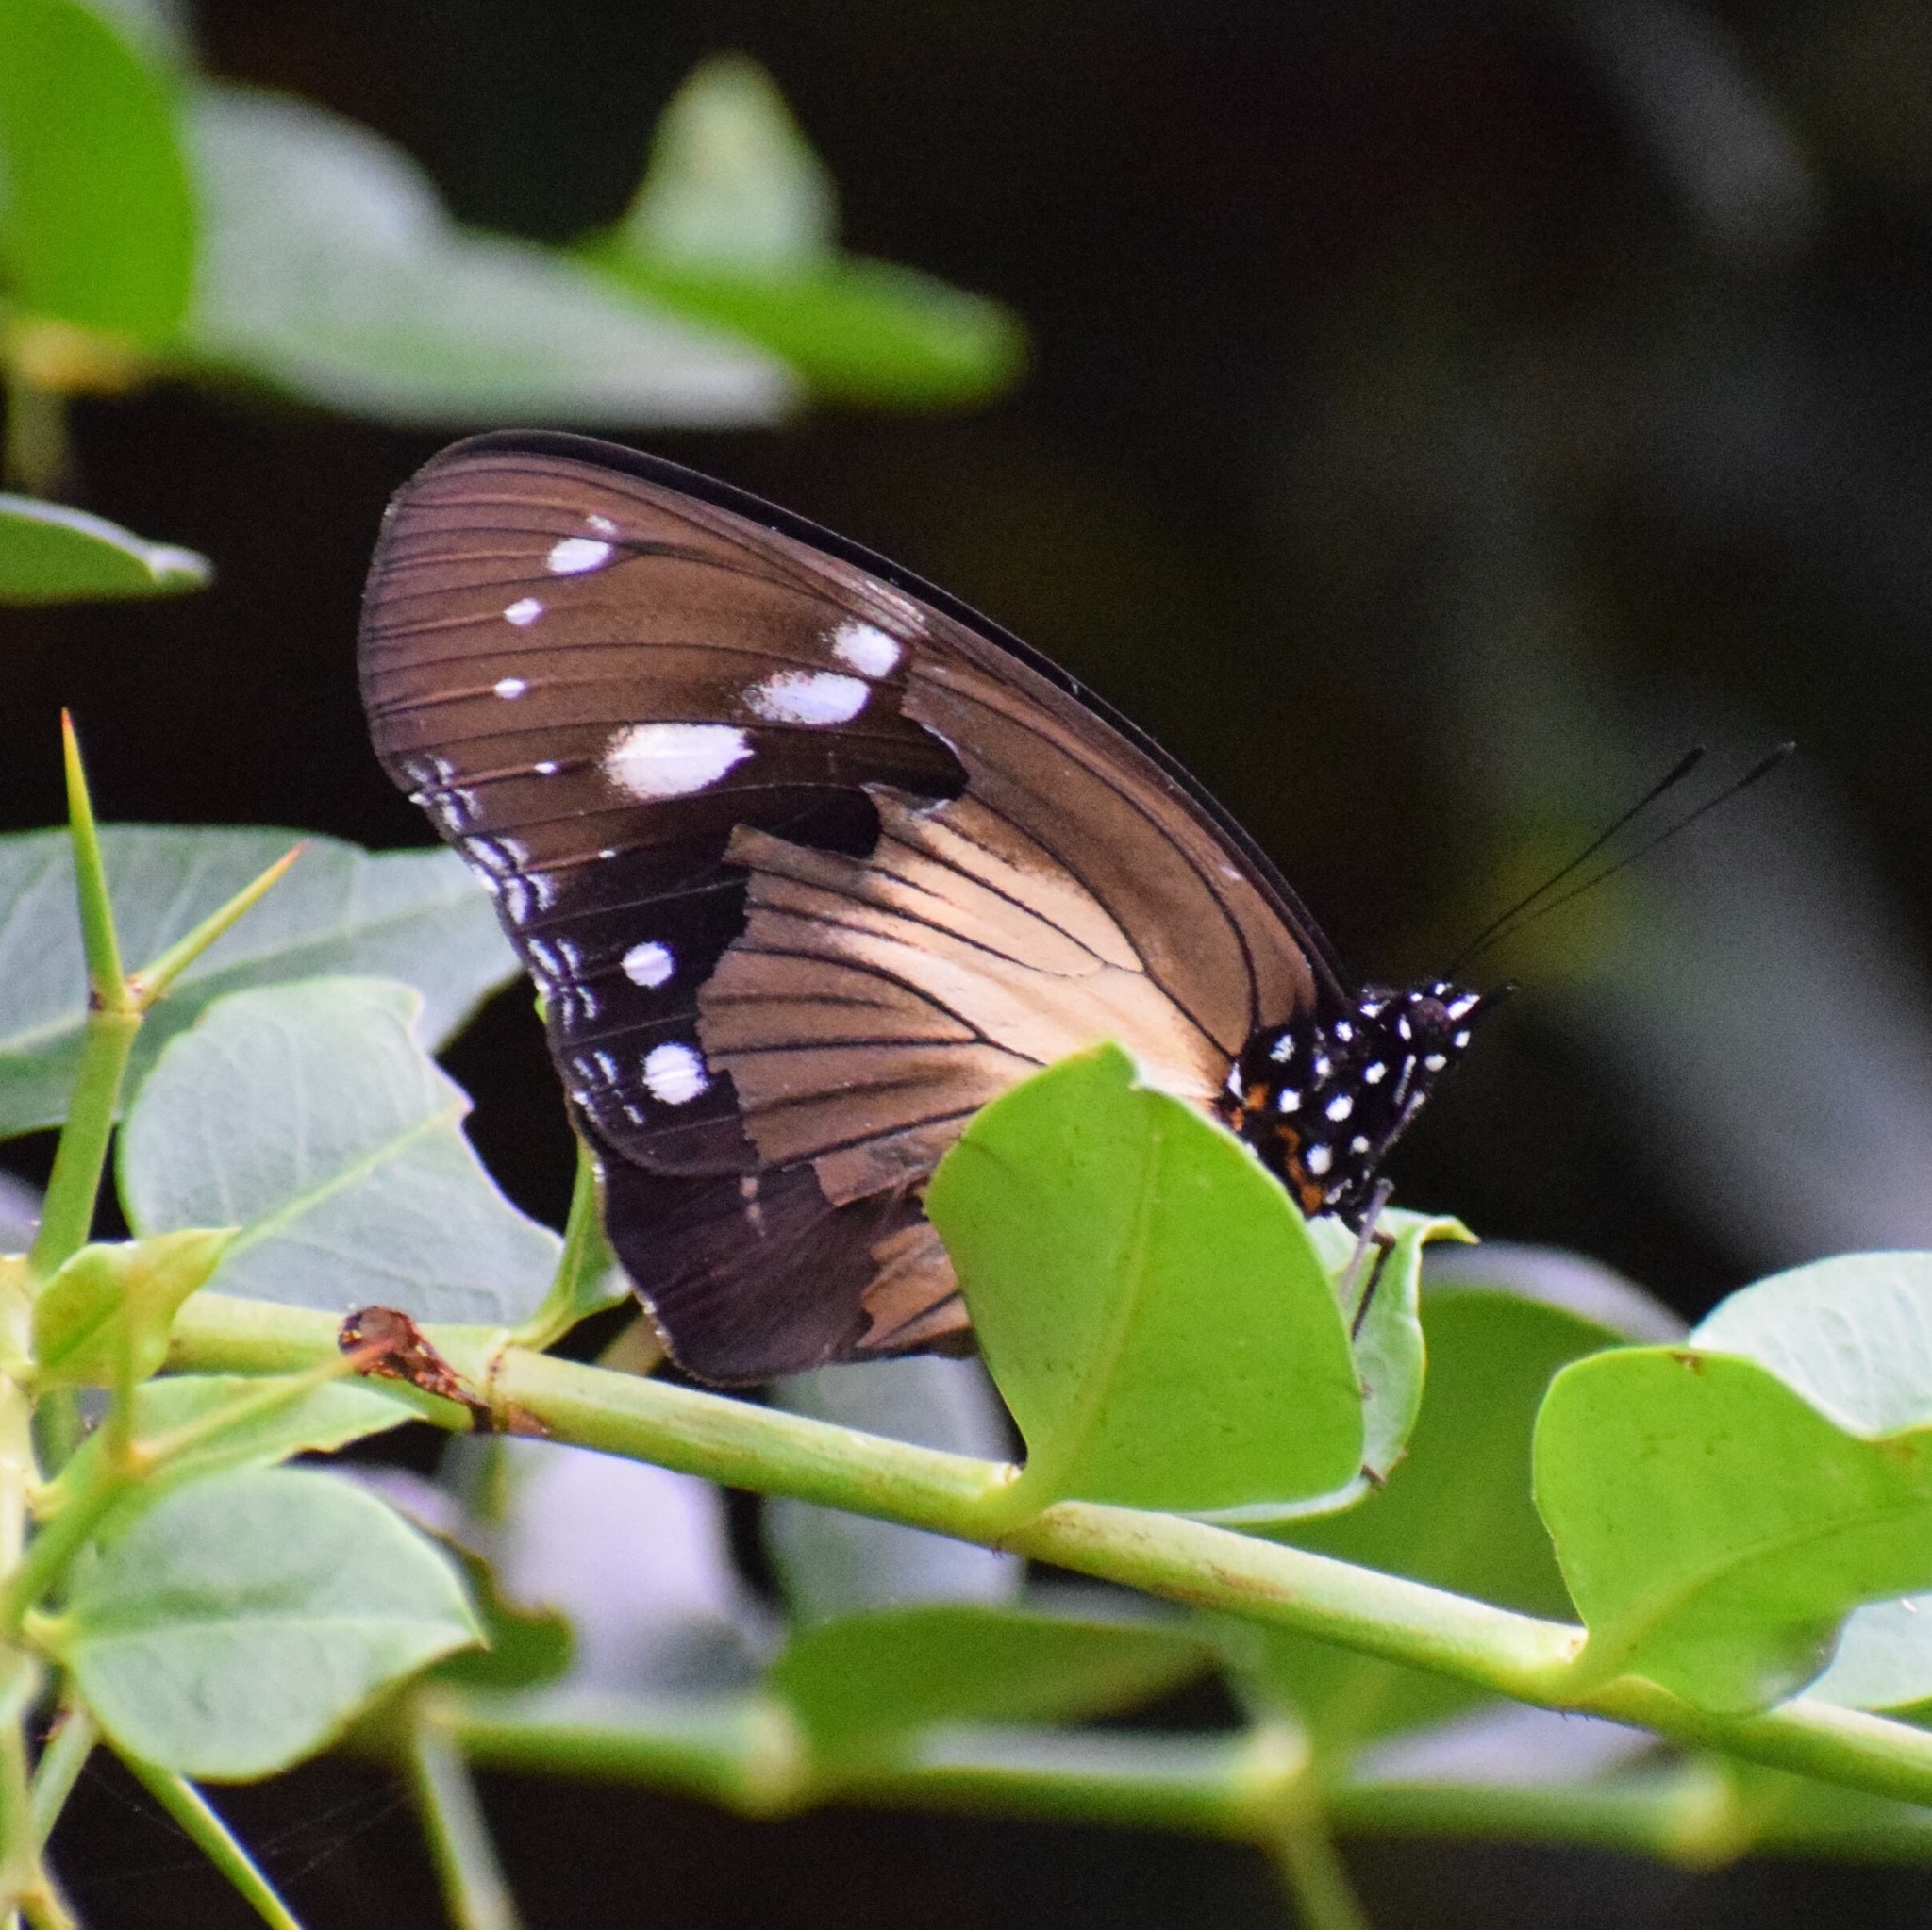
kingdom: Animalia
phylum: Arthropoda
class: Insecta
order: Lepidoptera
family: Nymphalidae
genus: Hypolimnas
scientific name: Hypolimnas dubius
